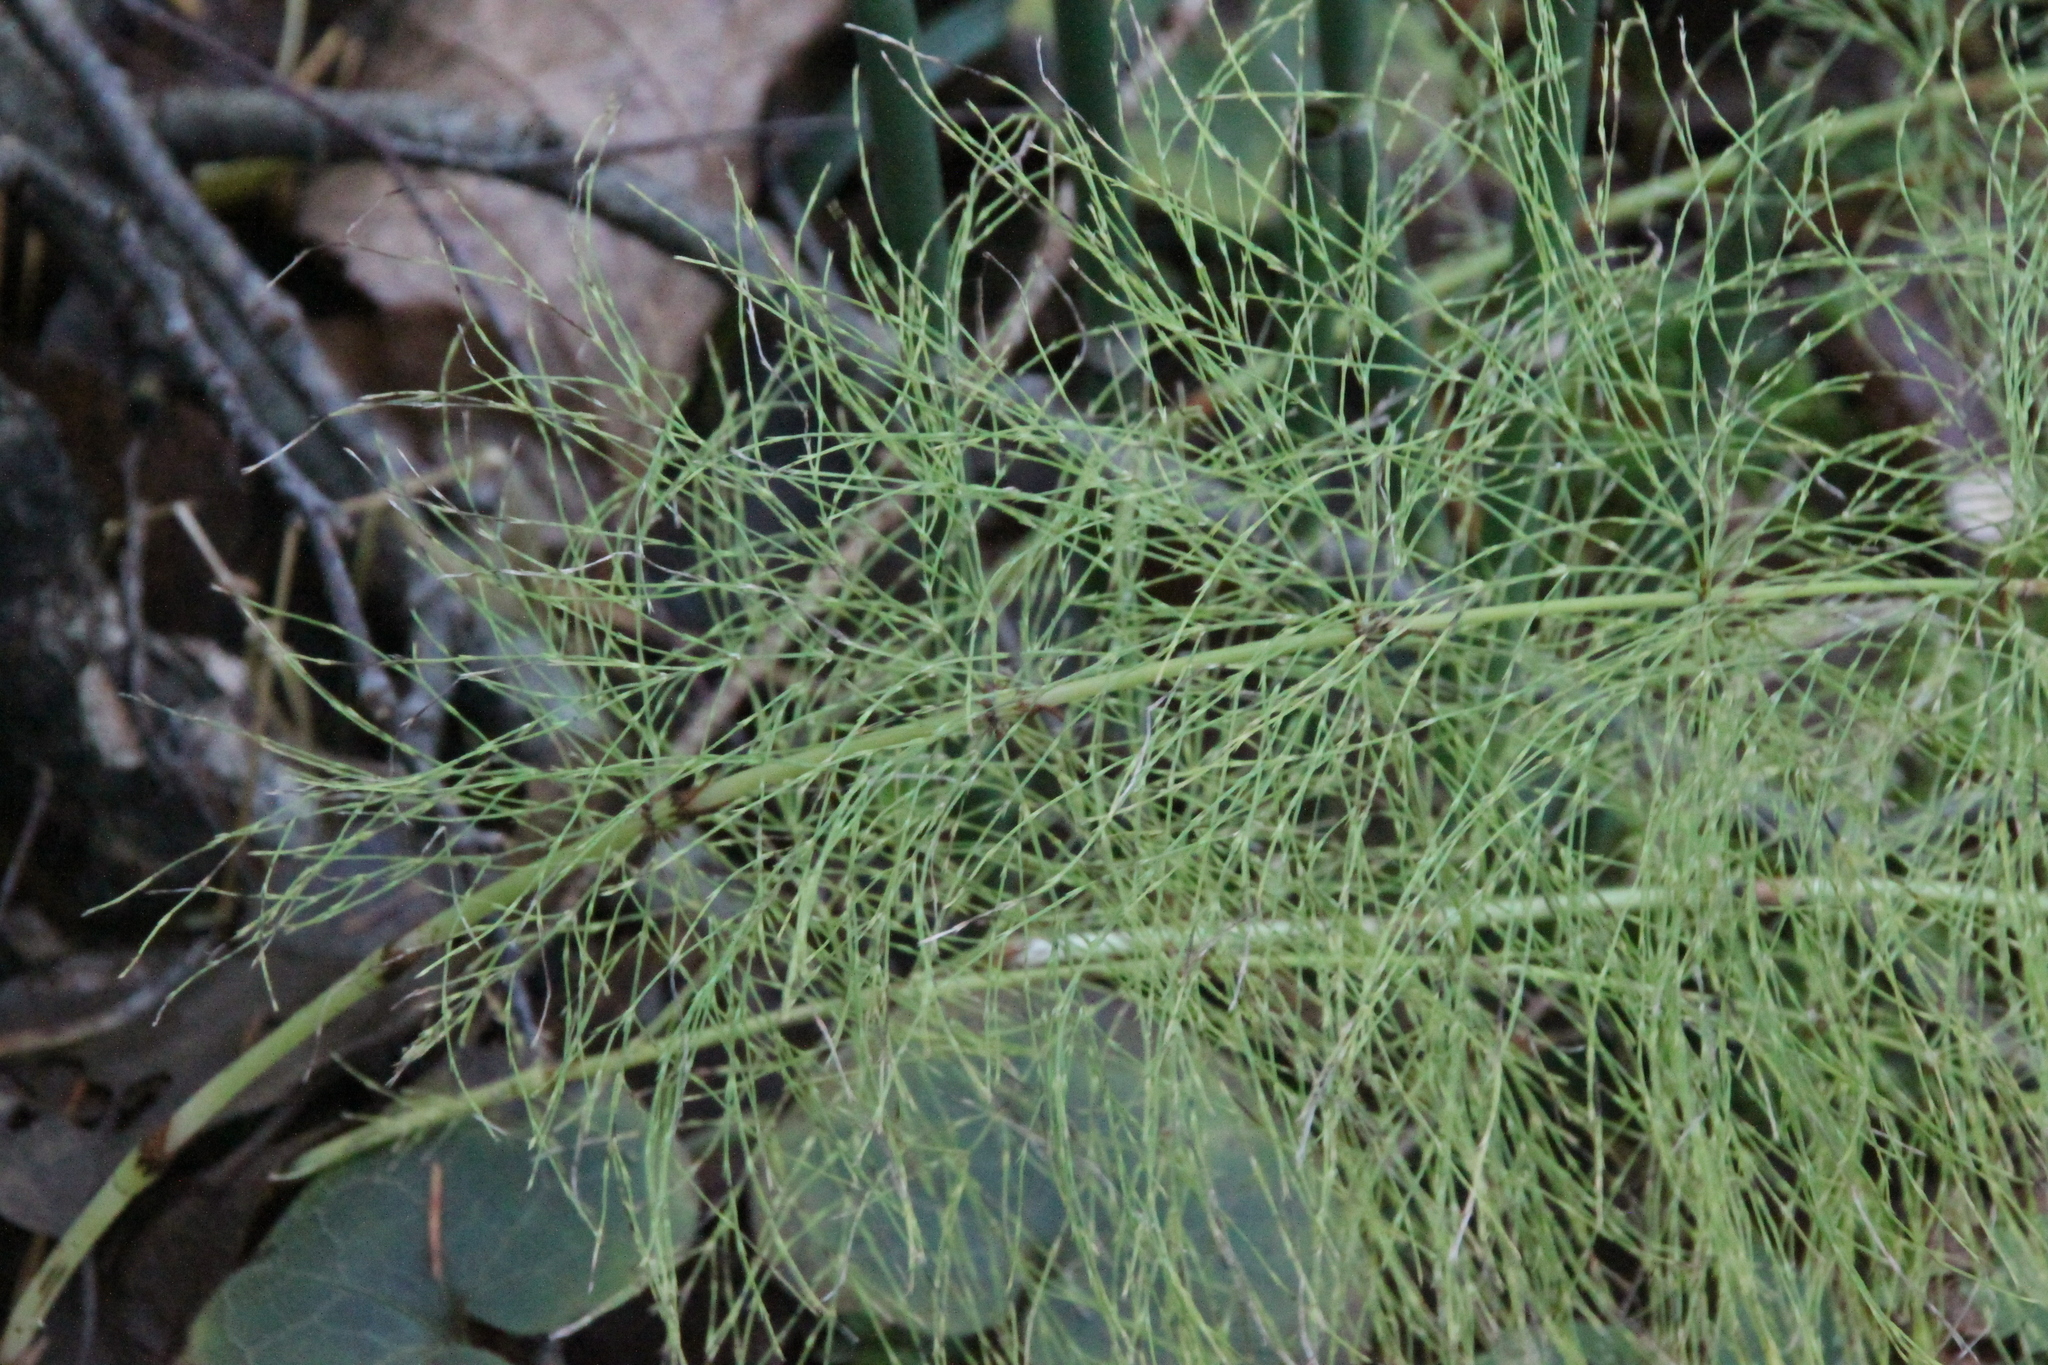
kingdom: Plantae
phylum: Tracheophyta
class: Polypodiopsida
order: Equisetales
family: Equisetaceae
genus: Equisetum
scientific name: Equisetum sylvaticum
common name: Wood horsetail
